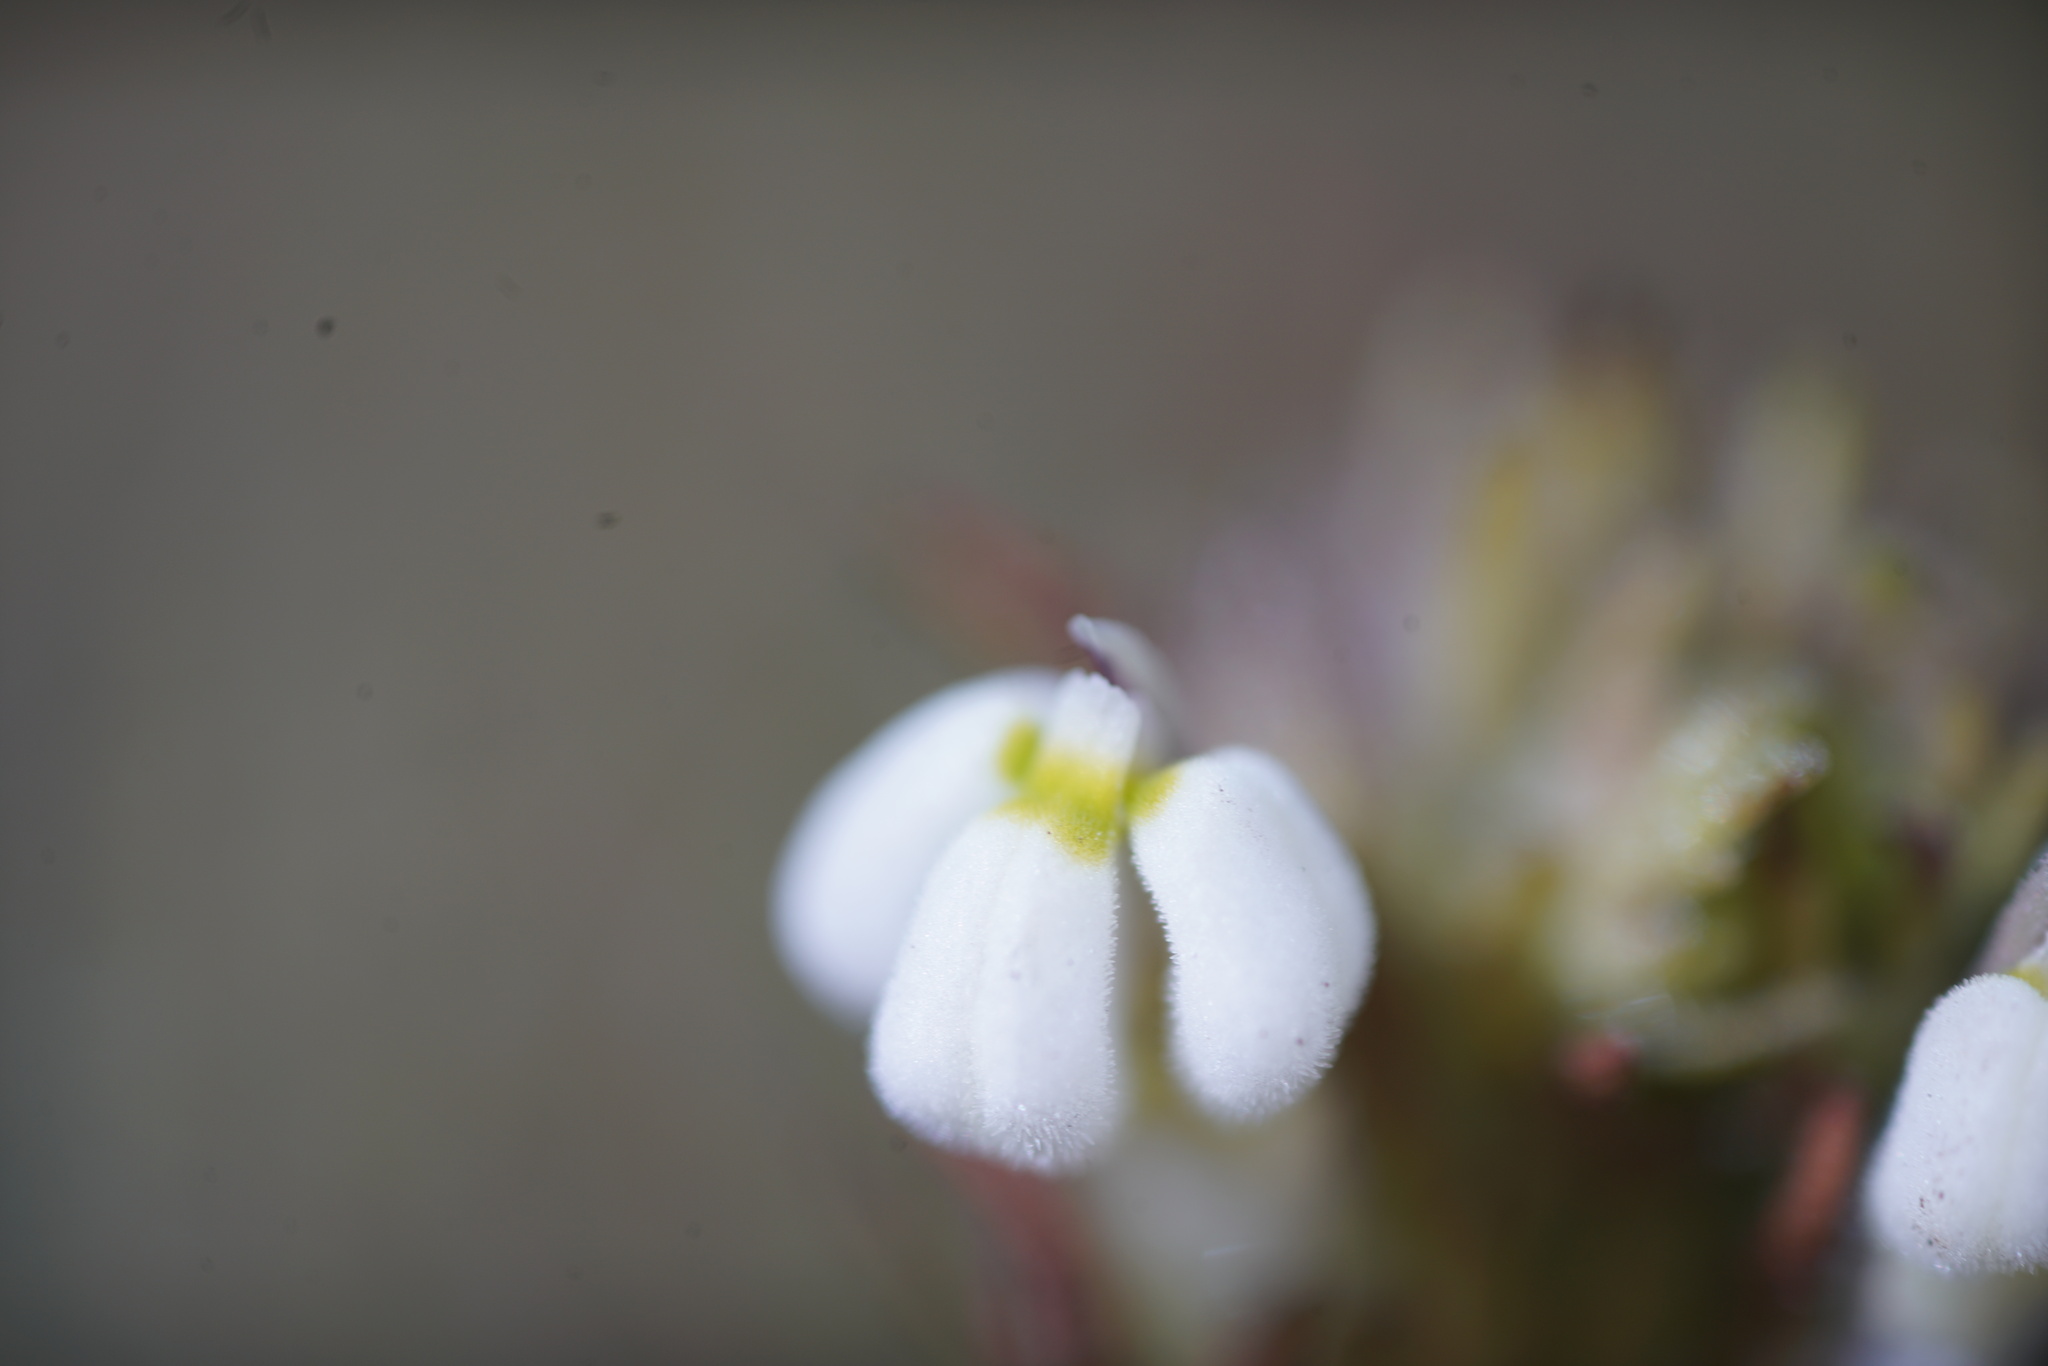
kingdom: Plantae
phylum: Tracheophyta
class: Magnoliopsida
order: Lamiales
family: Orobanchaceae
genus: Triphysaria
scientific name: Triphysaria versicolor
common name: Bearded false owl-clover
